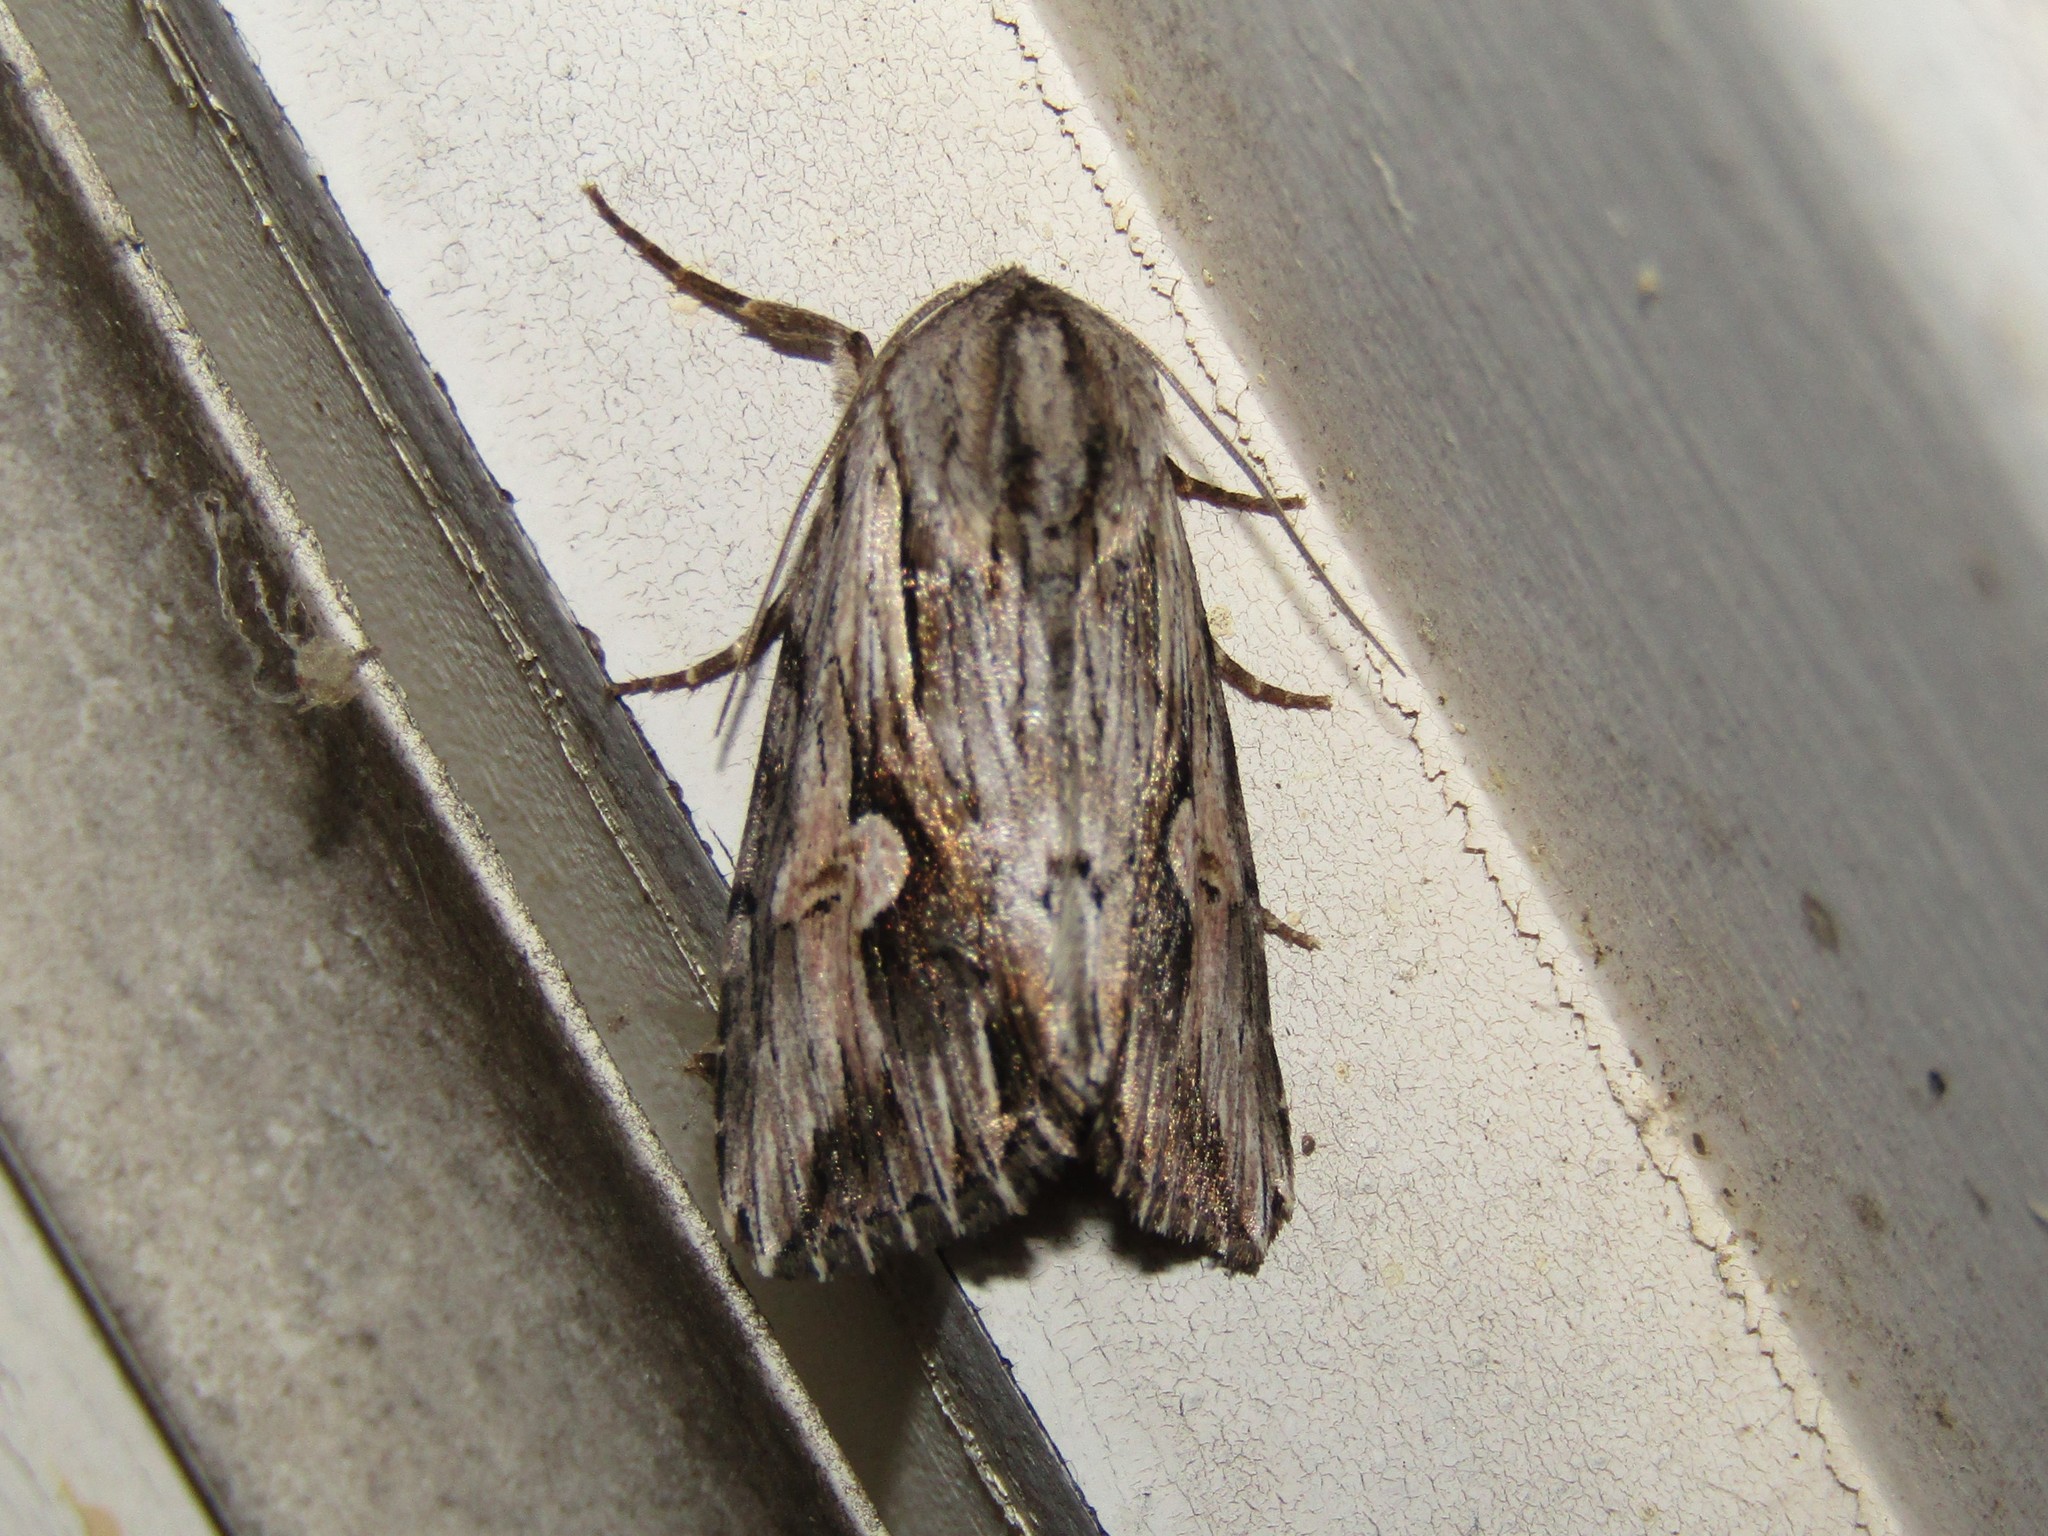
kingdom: Animalia
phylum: Arthropoda
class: Insecta
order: Lepidoptera
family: Noctuidae
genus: Nedra
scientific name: Nedra ramosula
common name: Gray half-spot
